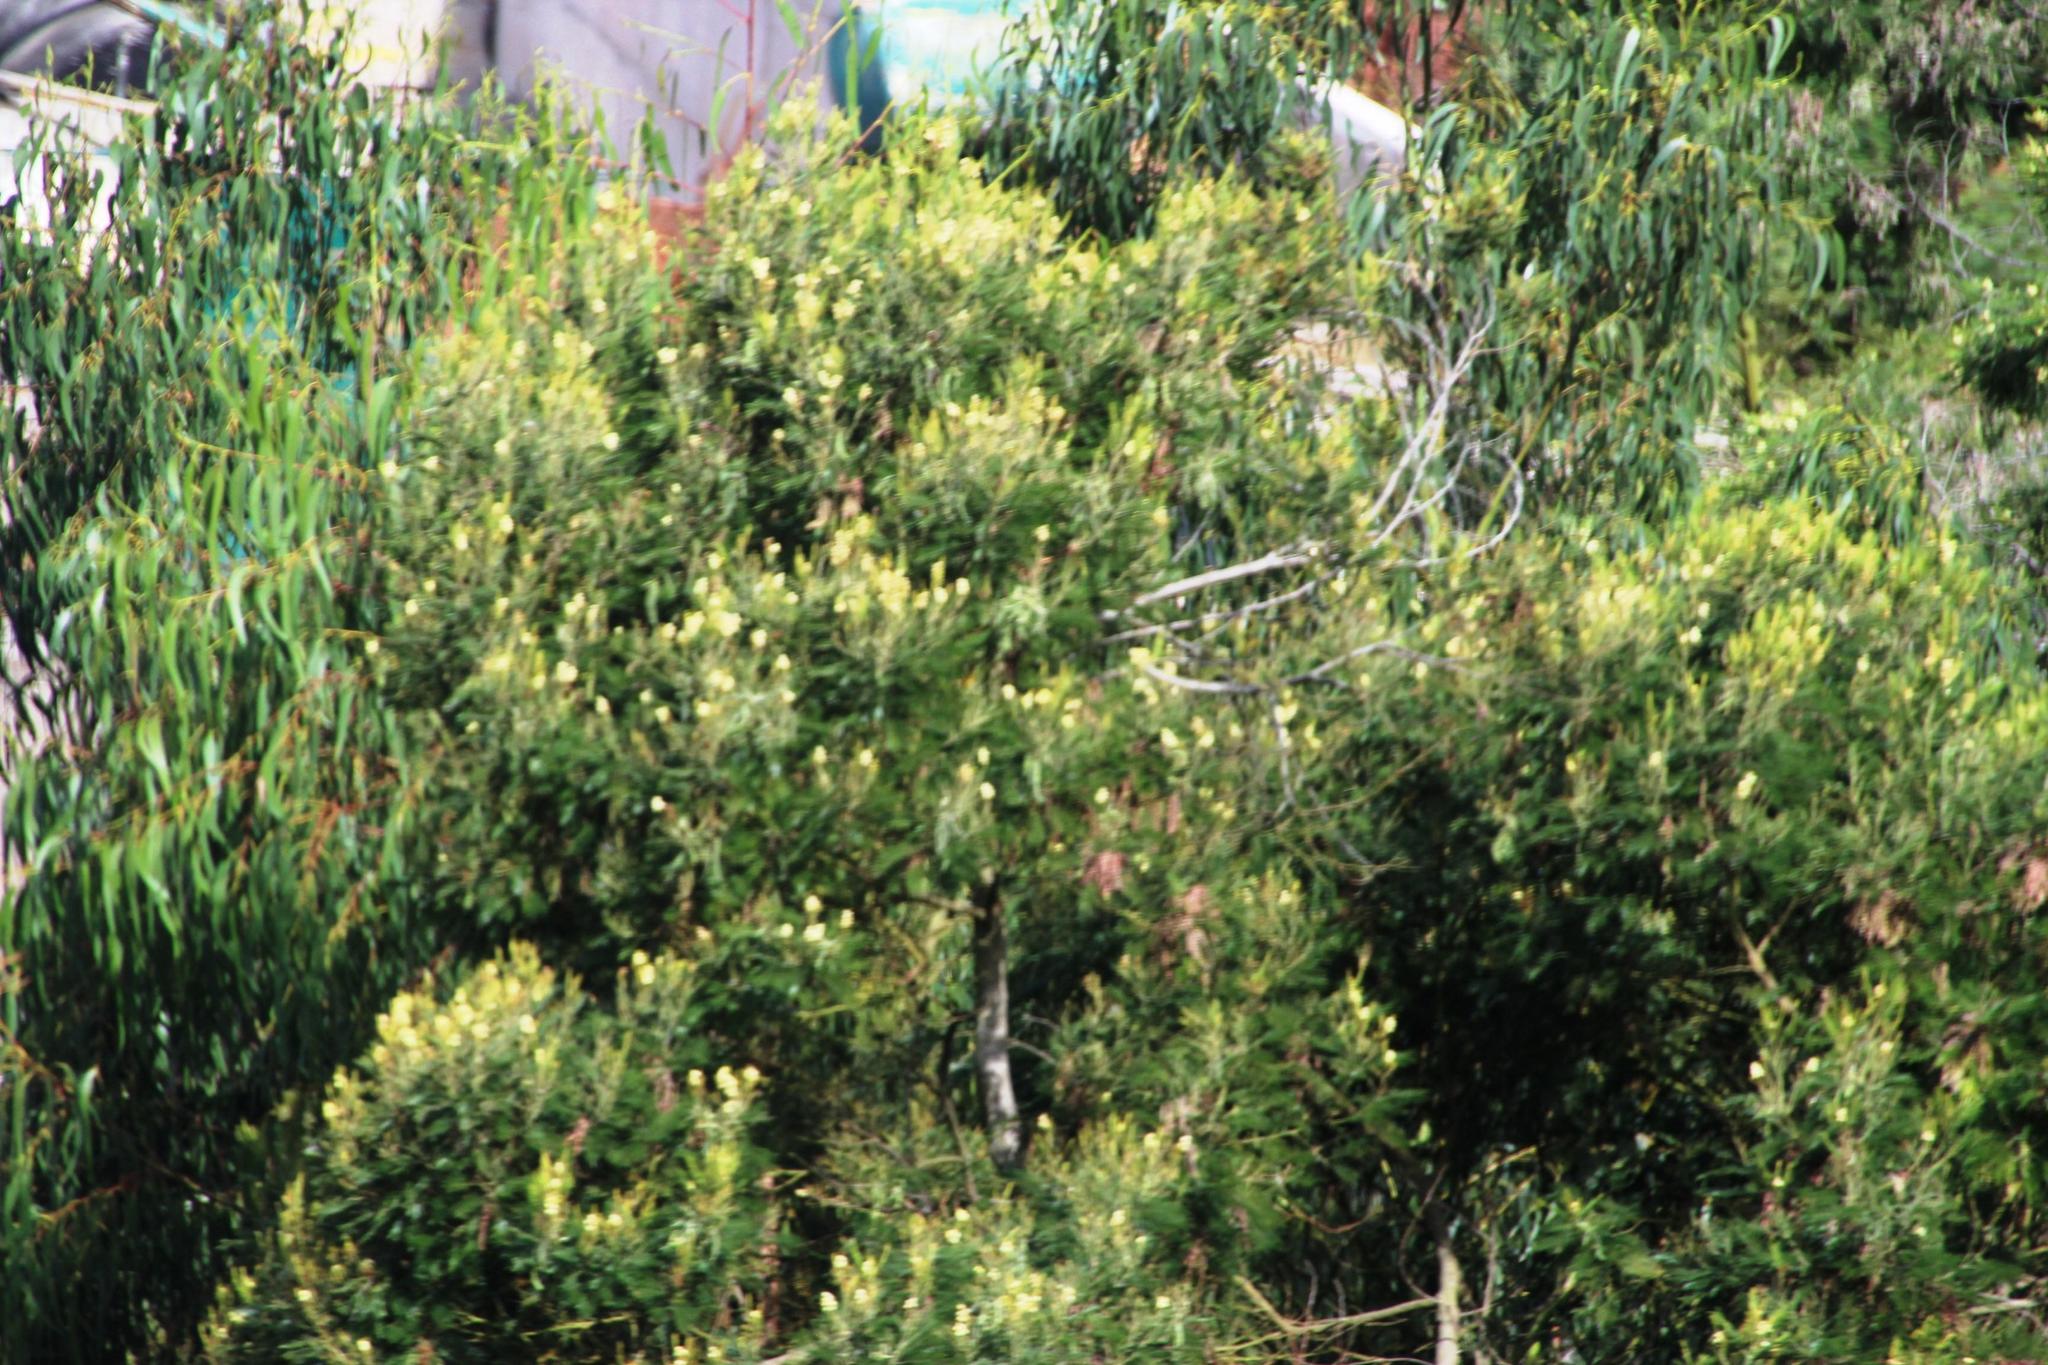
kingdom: Plantae
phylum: Tracheophyta
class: Magnoliopsida
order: Fabales
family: Fabaceae
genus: Acacia
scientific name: Acacia mearnsii
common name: Black wattle
